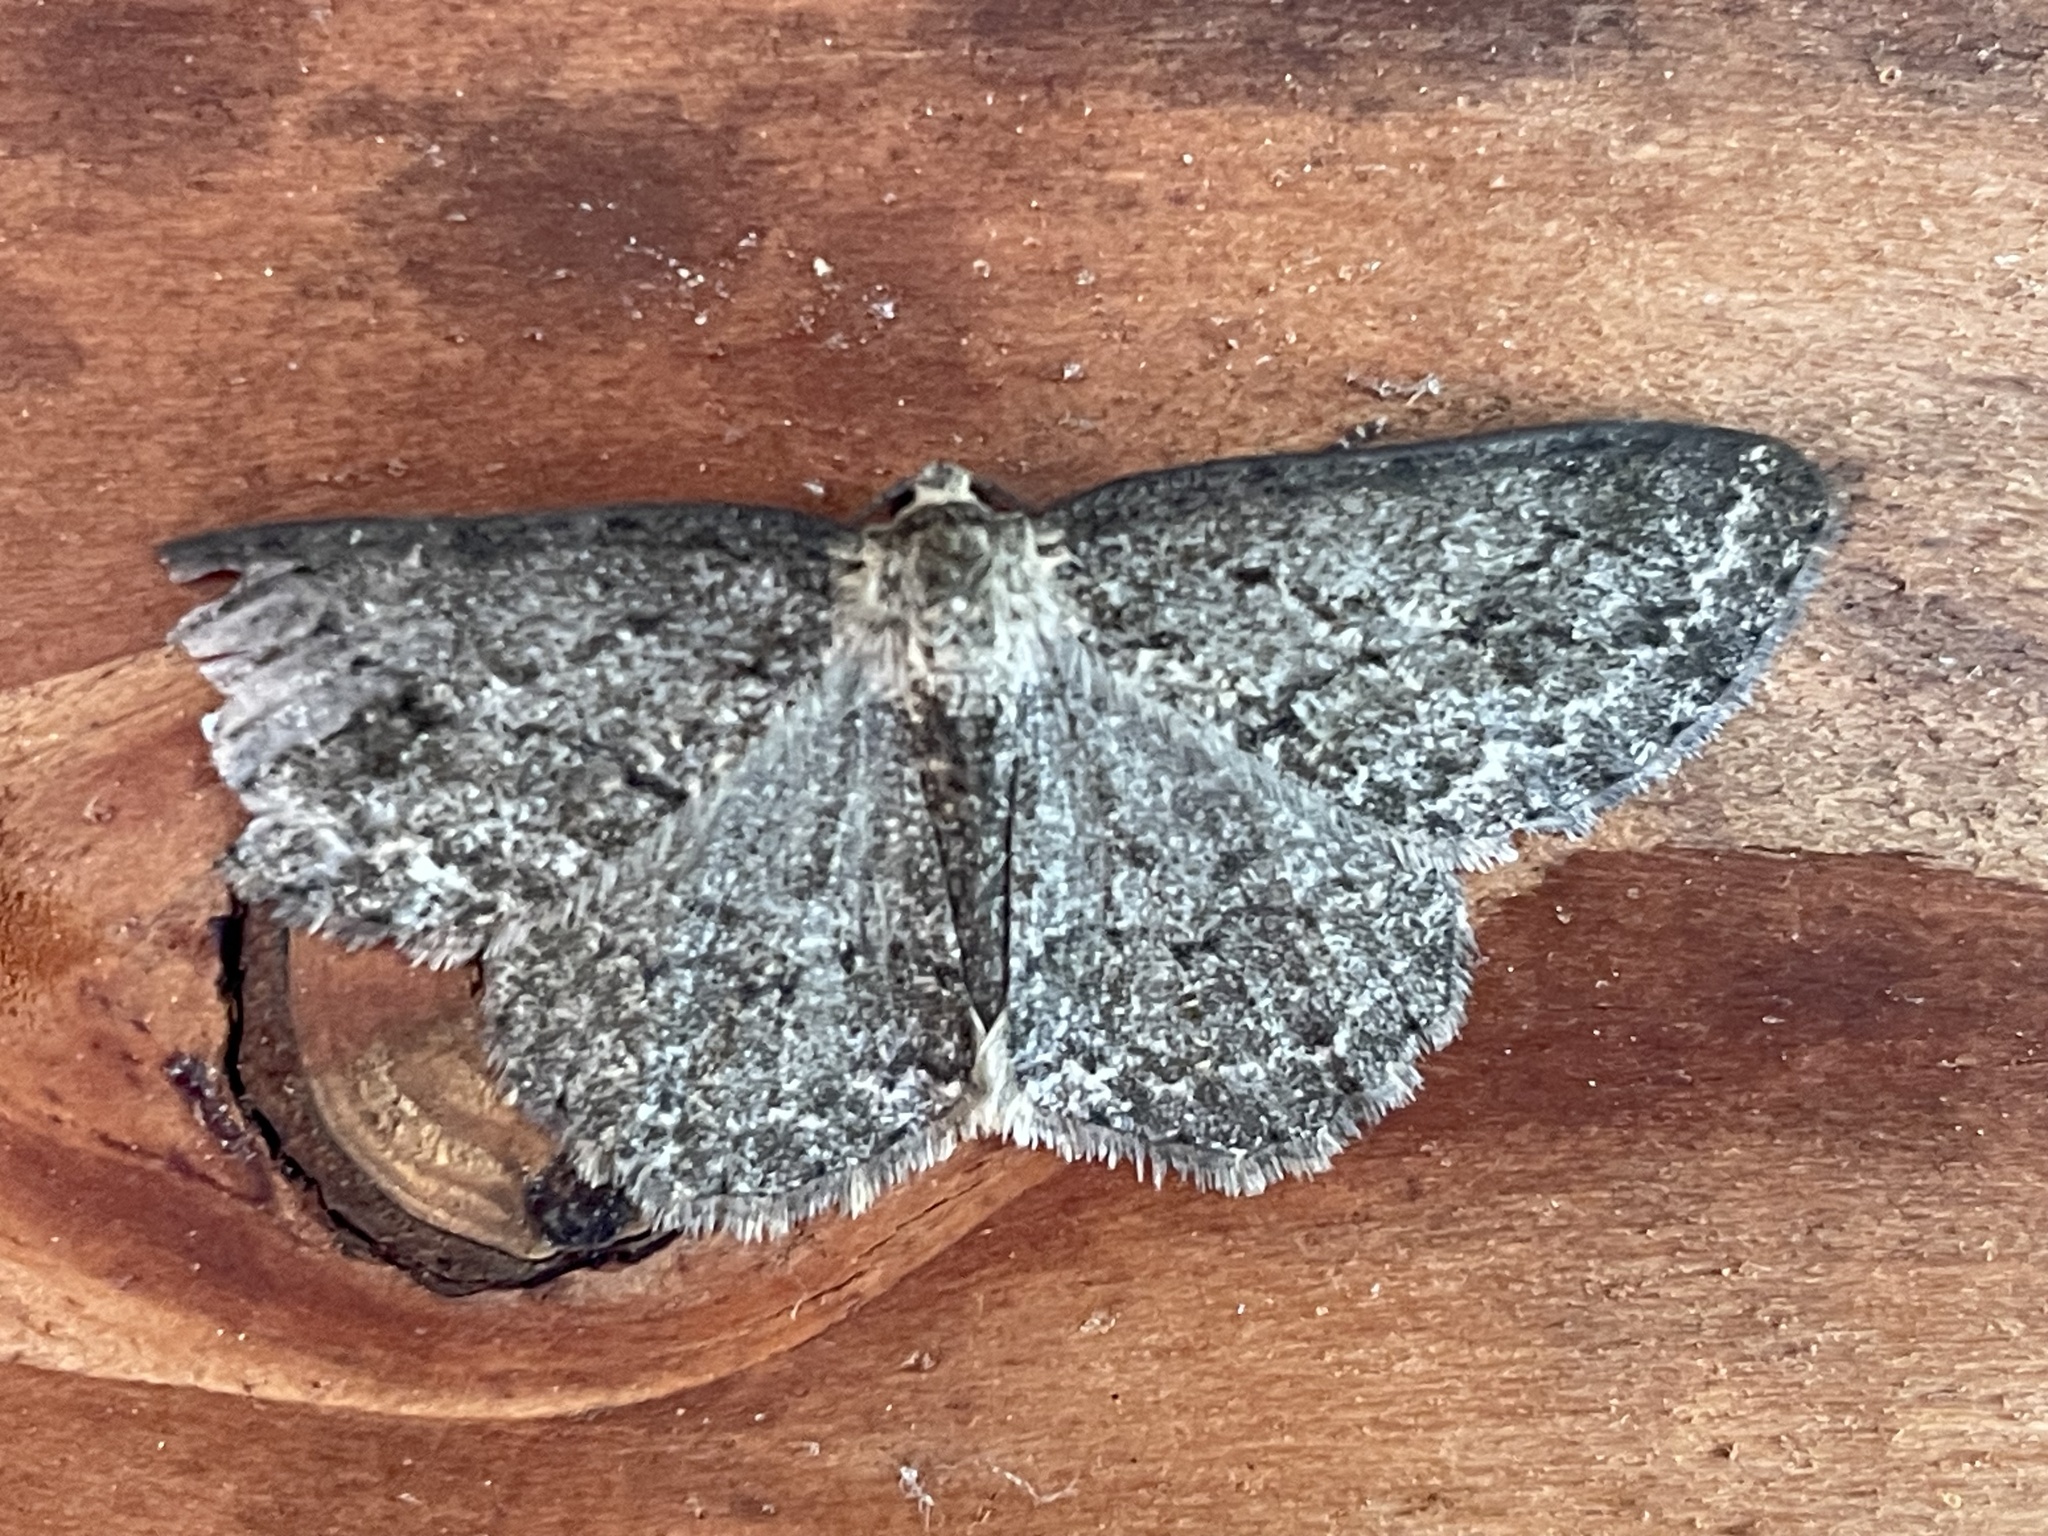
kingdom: Animalia
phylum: Arthropoda
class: Insecta
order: Lepidoptera
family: Geometridae
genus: Ectropis
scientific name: Ectropis crepuscularia
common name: Engrailed
